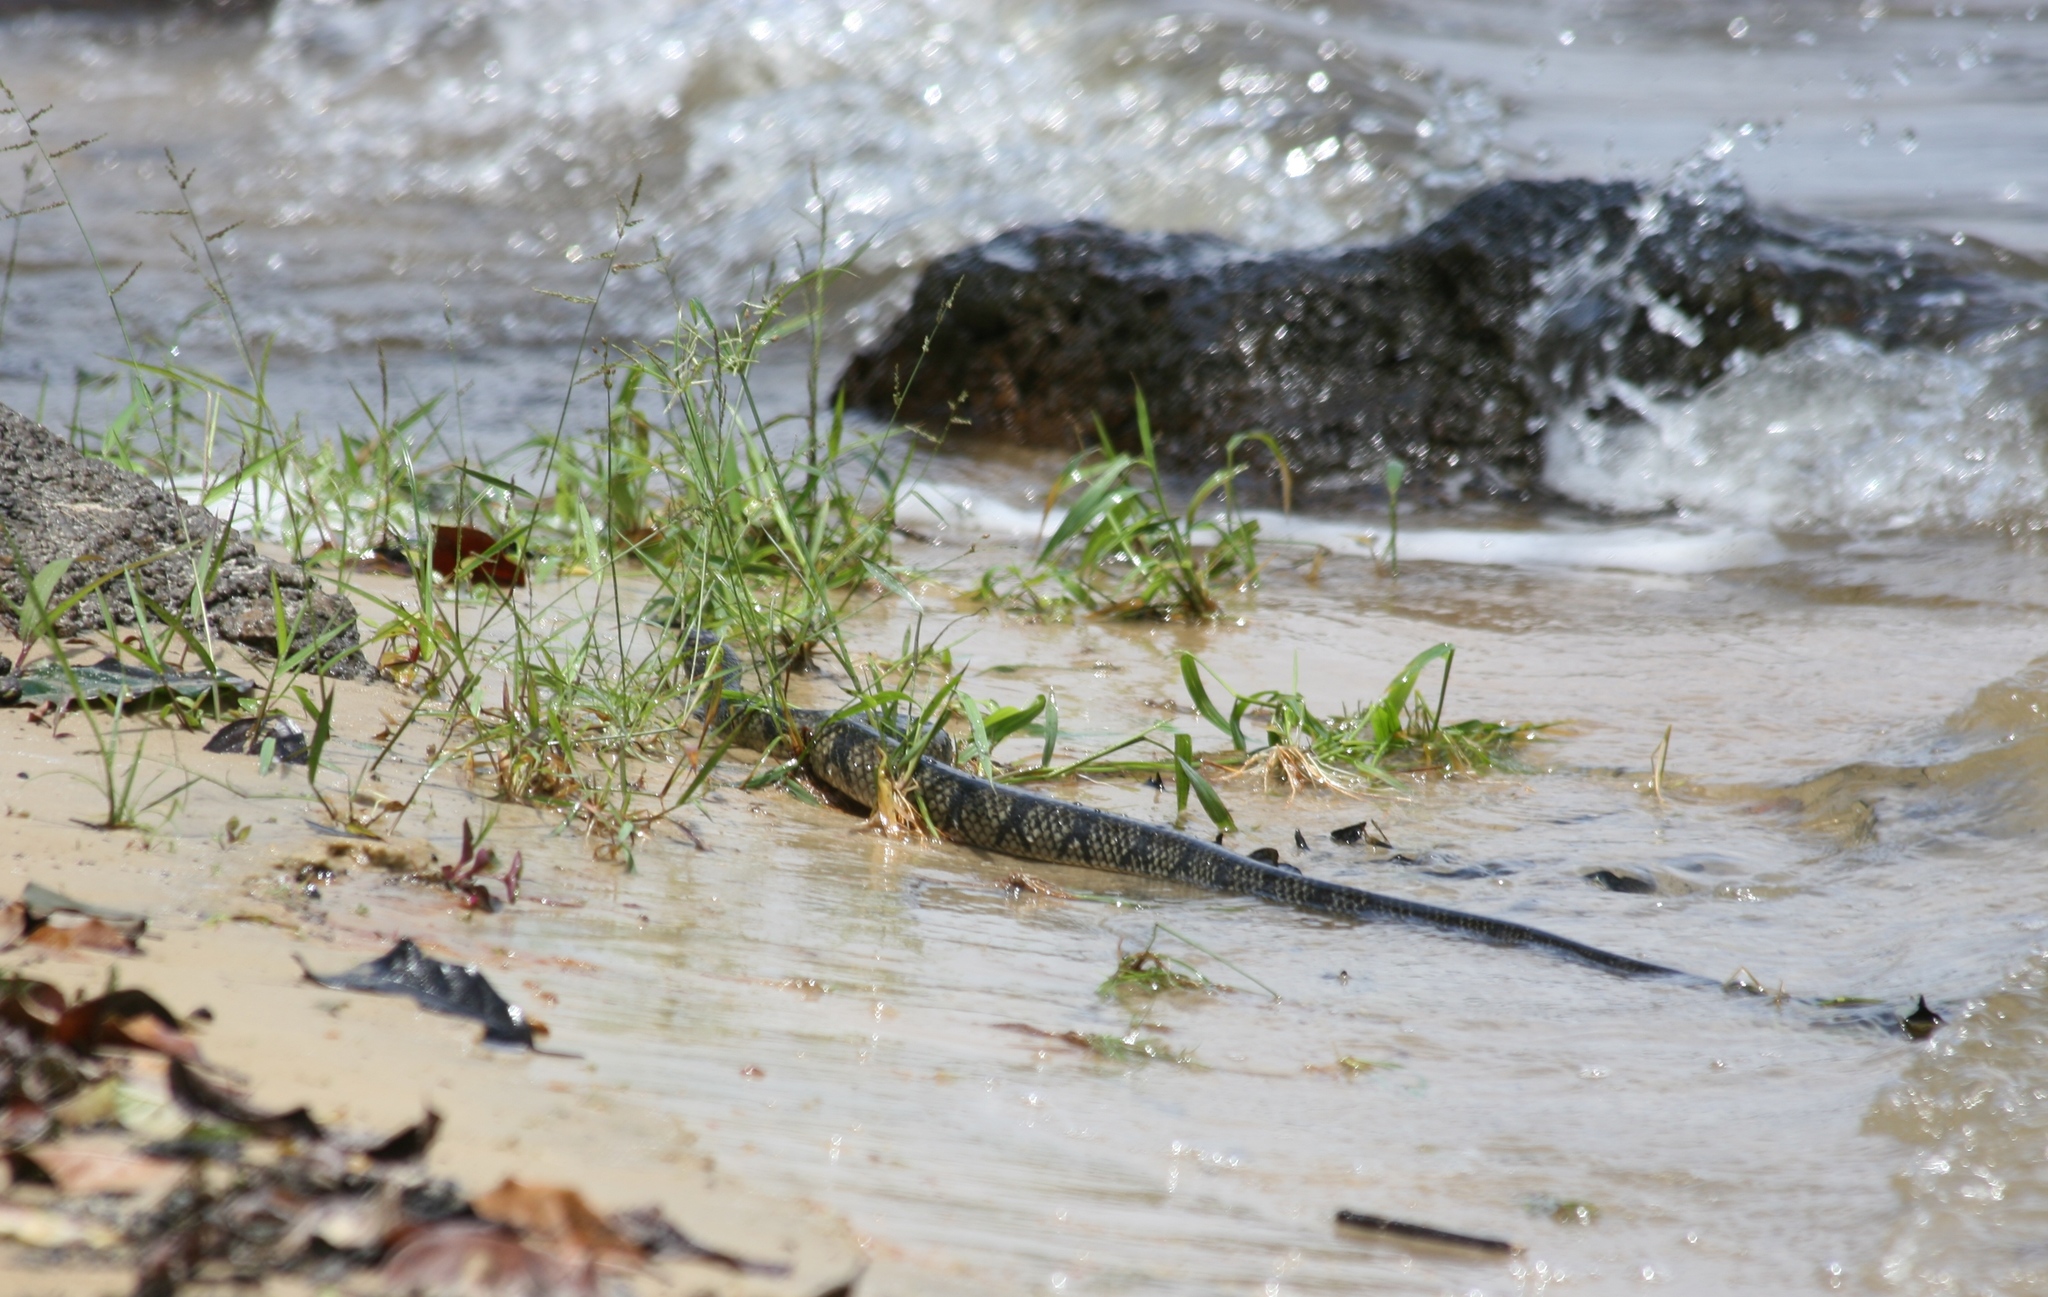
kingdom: Animalia
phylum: Chordata
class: Squamata
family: Colubridae
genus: Grayia
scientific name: Grayia ornata
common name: Ornate african water snake
